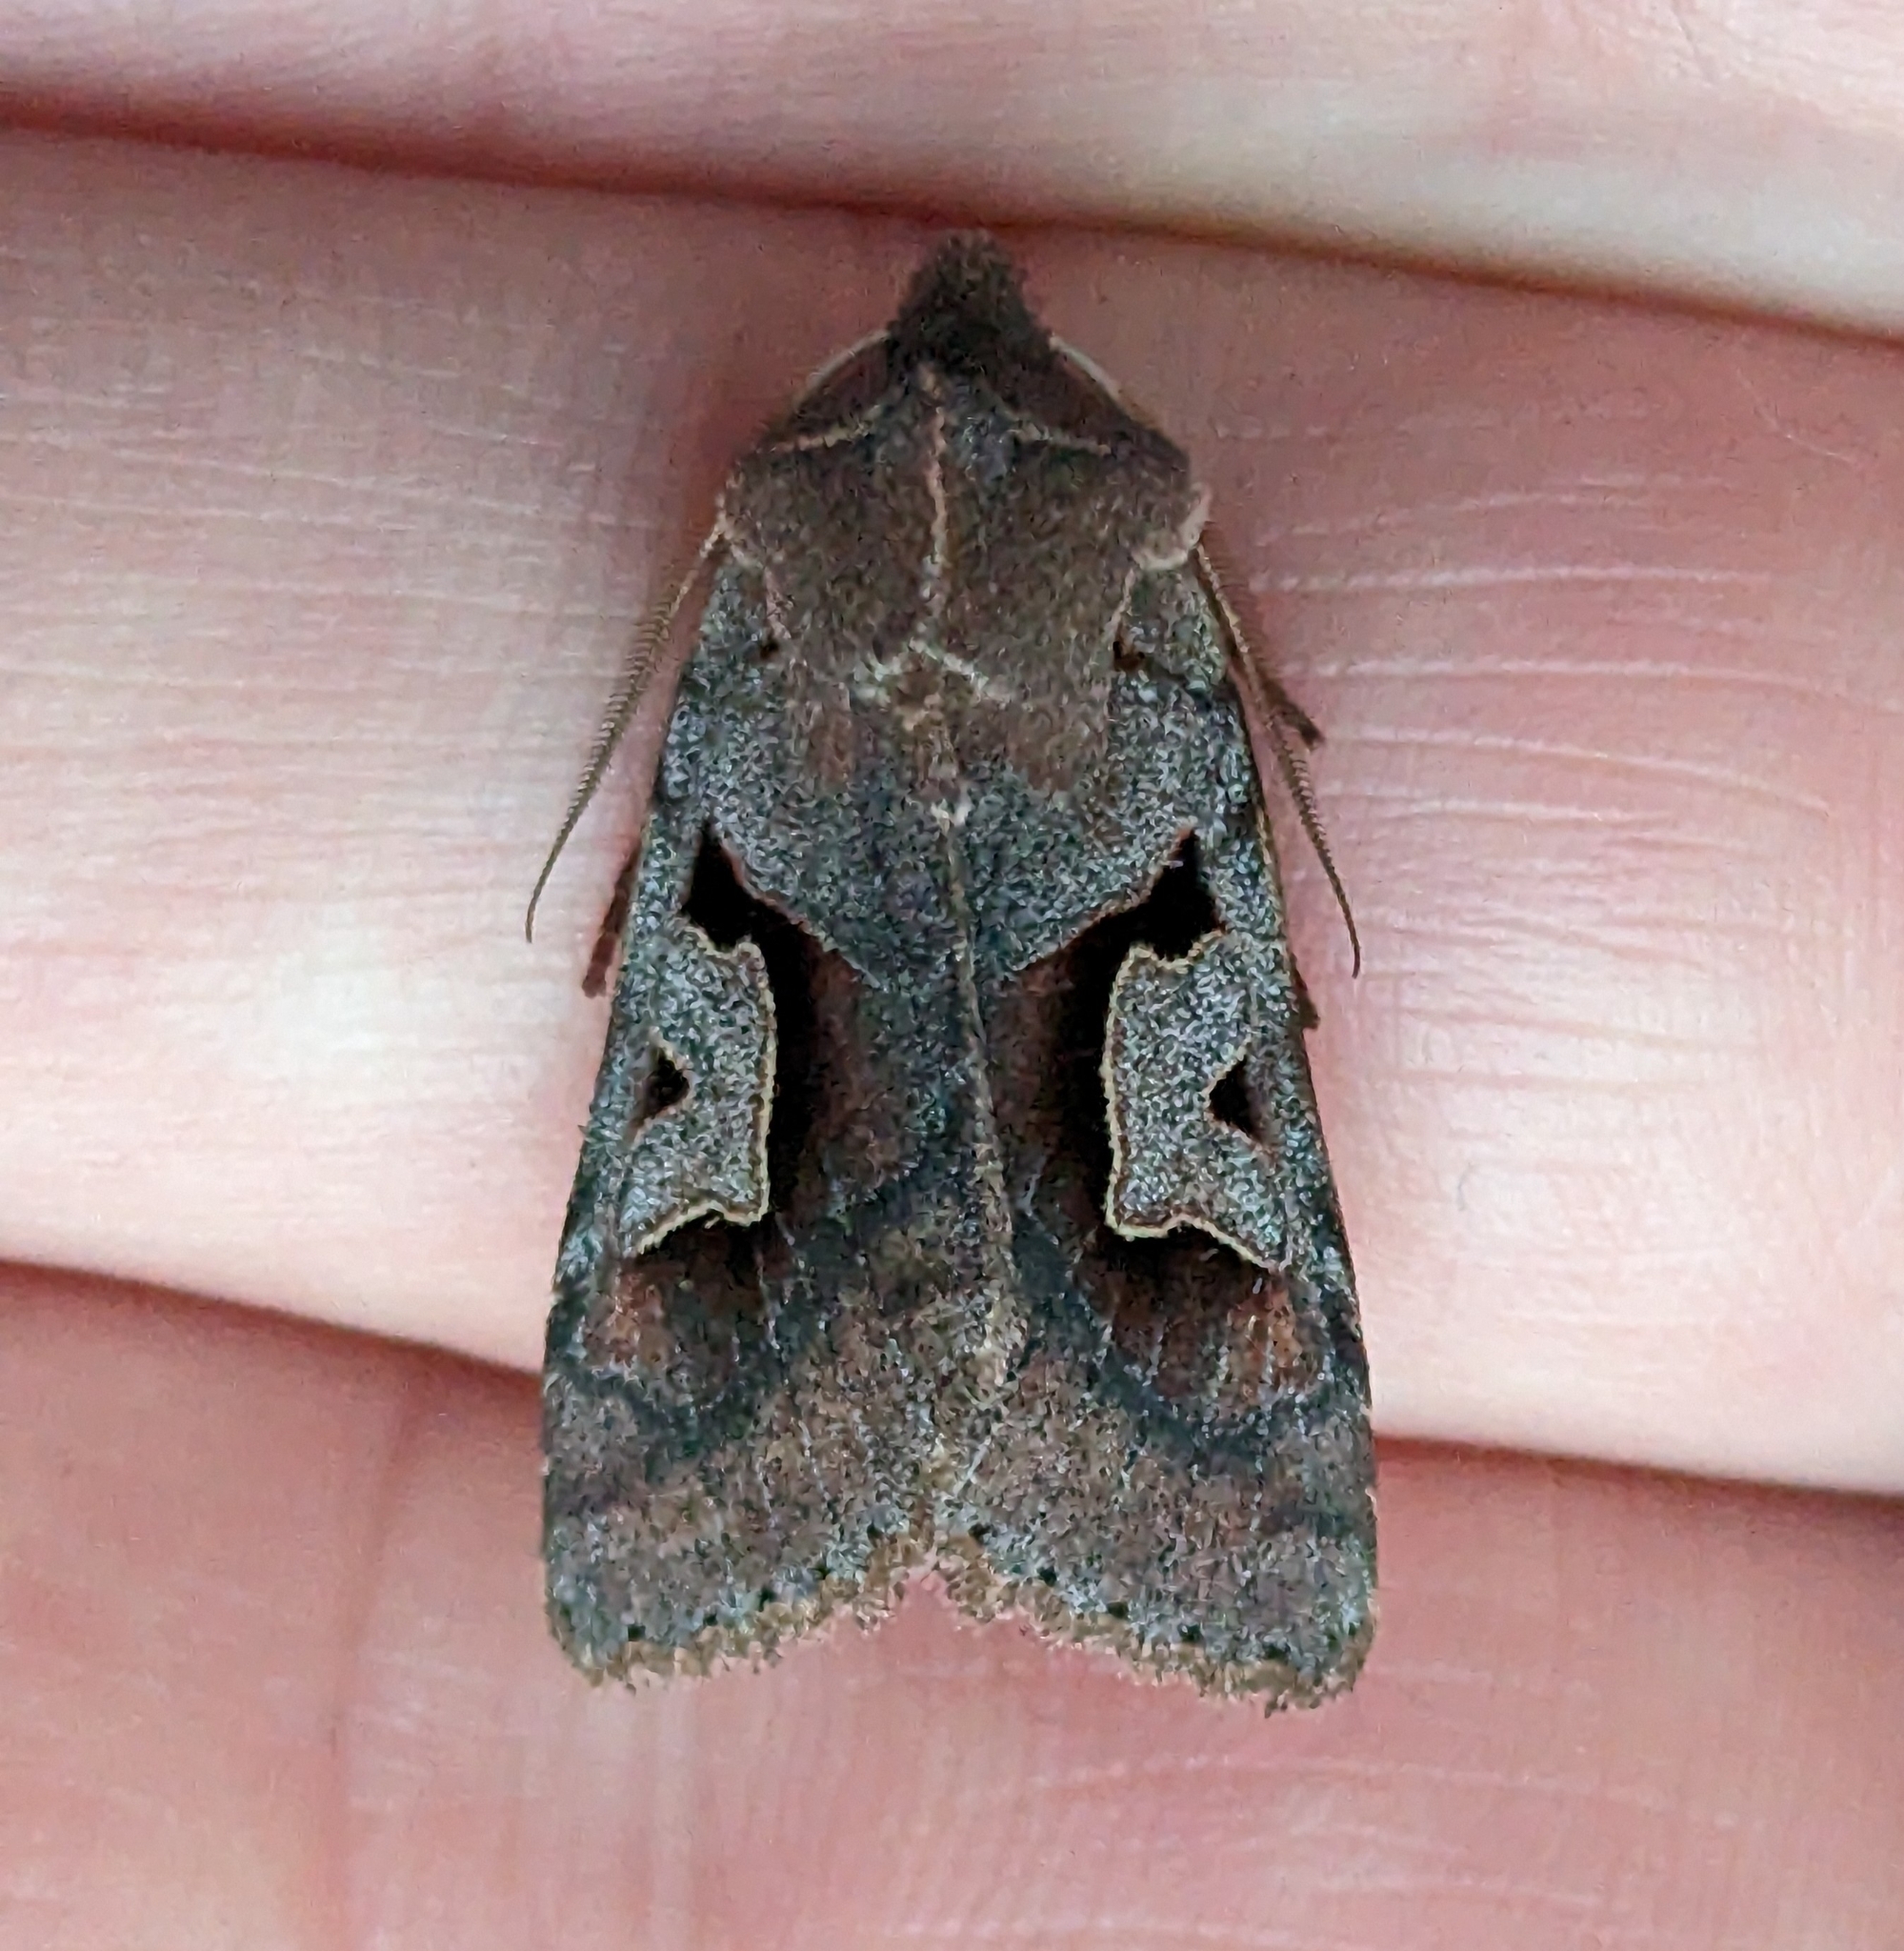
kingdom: Animalia
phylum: Arthropoda
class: Insecta
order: Lepidoptera
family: Noctuidae
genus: Acerra
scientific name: Acerra normalis
